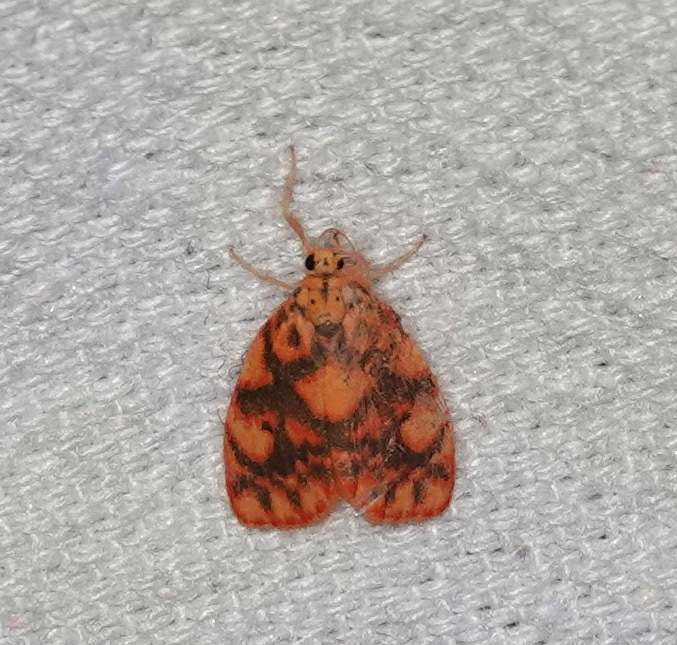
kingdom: Animalia
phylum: Arthropoda
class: Insecta
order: Lepidoptera
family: Erebidae
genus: Nanarsine
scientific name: Nanarsine porphyrea
